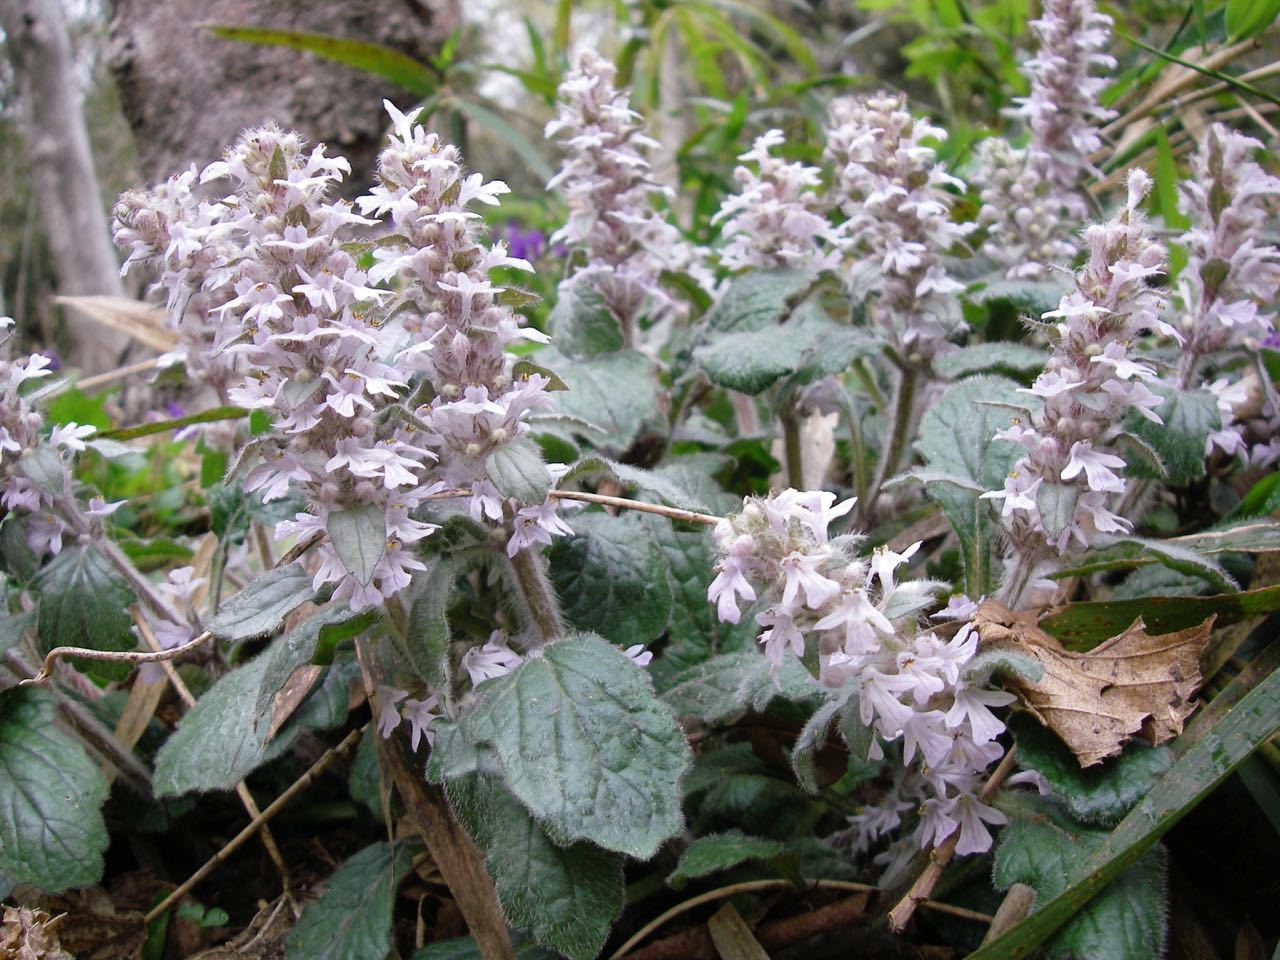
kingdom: Plantae
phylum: Tracheophyta
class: Magnoliopsida
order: Lamiales
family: Lamiaceae
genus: Ajuga
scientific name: Ajuga nipponensis
